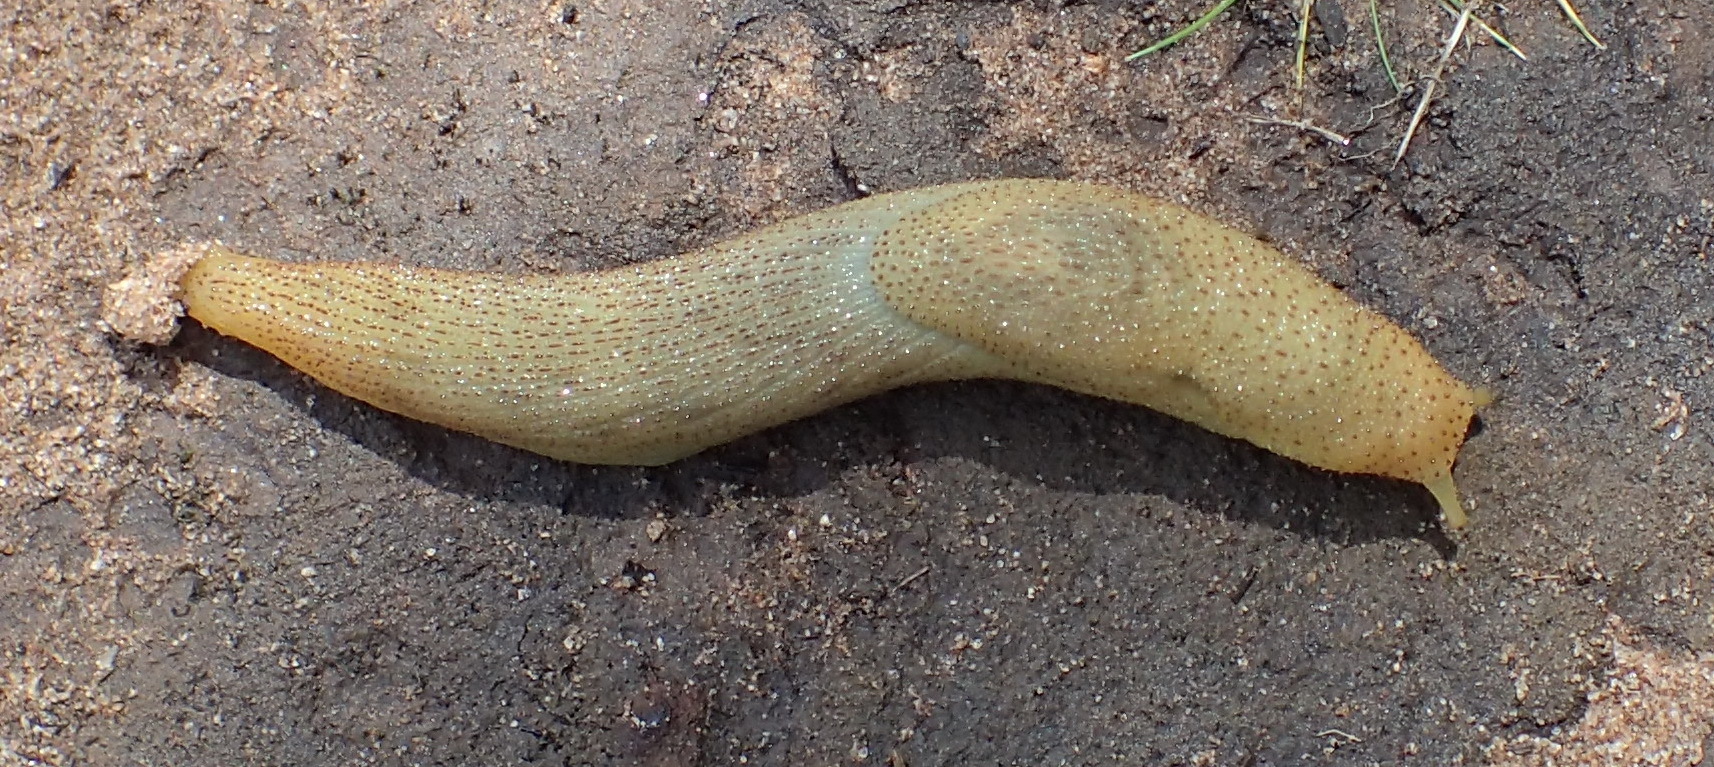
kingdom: Animalia
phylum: Mollusca
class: Gastropoda
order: Stylommatophora
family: Oopeltidae
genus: Oopelta
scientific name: Oopelta capensis
